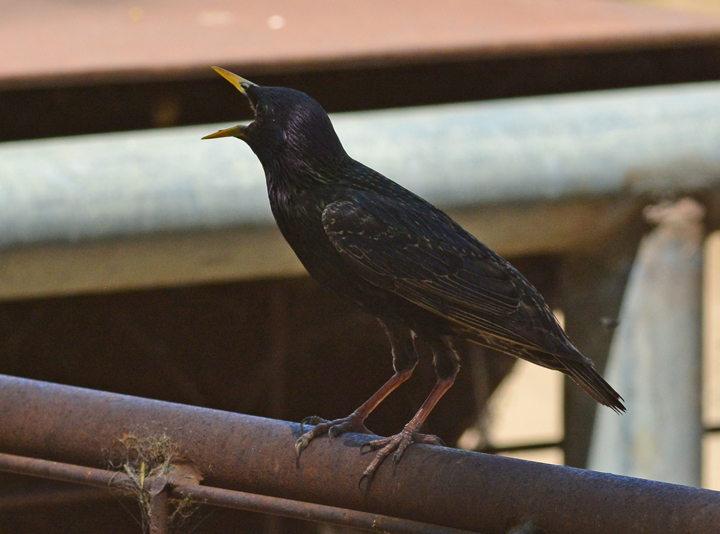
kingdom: Animalia
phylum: Chordata
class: Aves
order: Passeriformes
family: Sturnidae
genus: Sturnus
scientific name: Sturnus vulgaris
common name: Common starling
